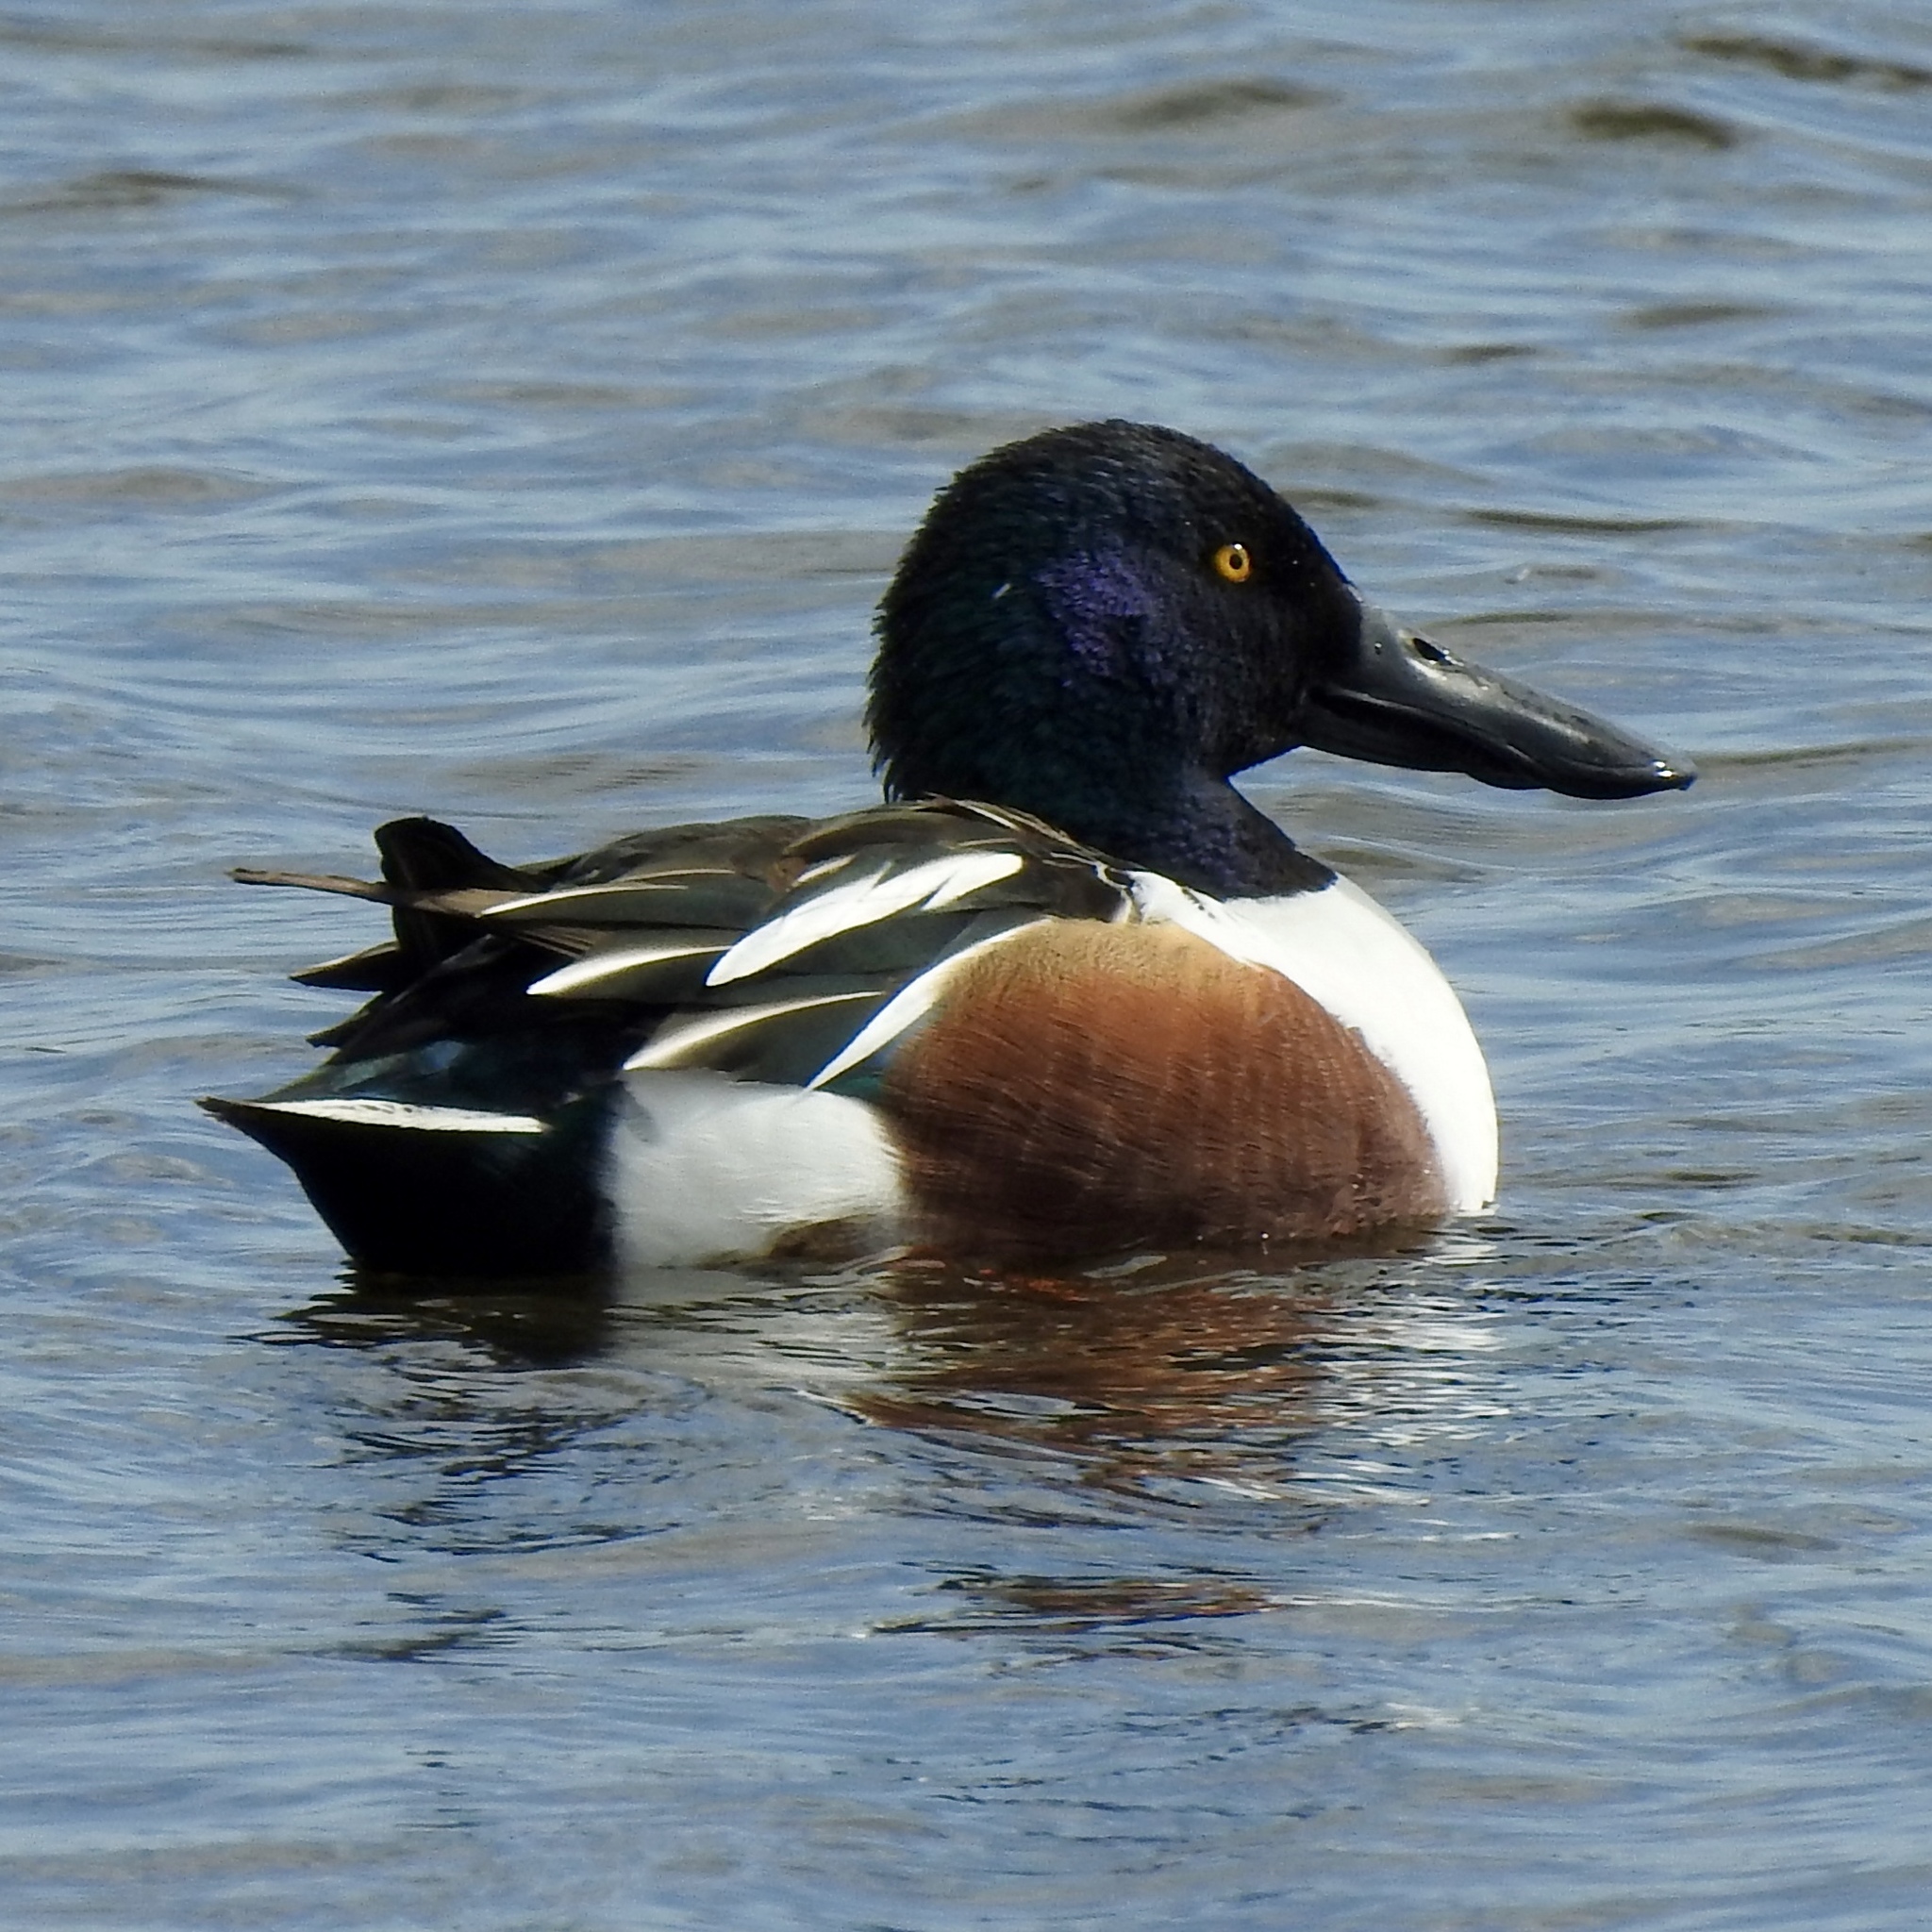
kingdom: Animalia
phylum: Chordata
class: Aves
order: Anseriformes
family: Anatidae
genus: Spatula
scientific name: Spatula clypeata
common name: Northern shoveler
